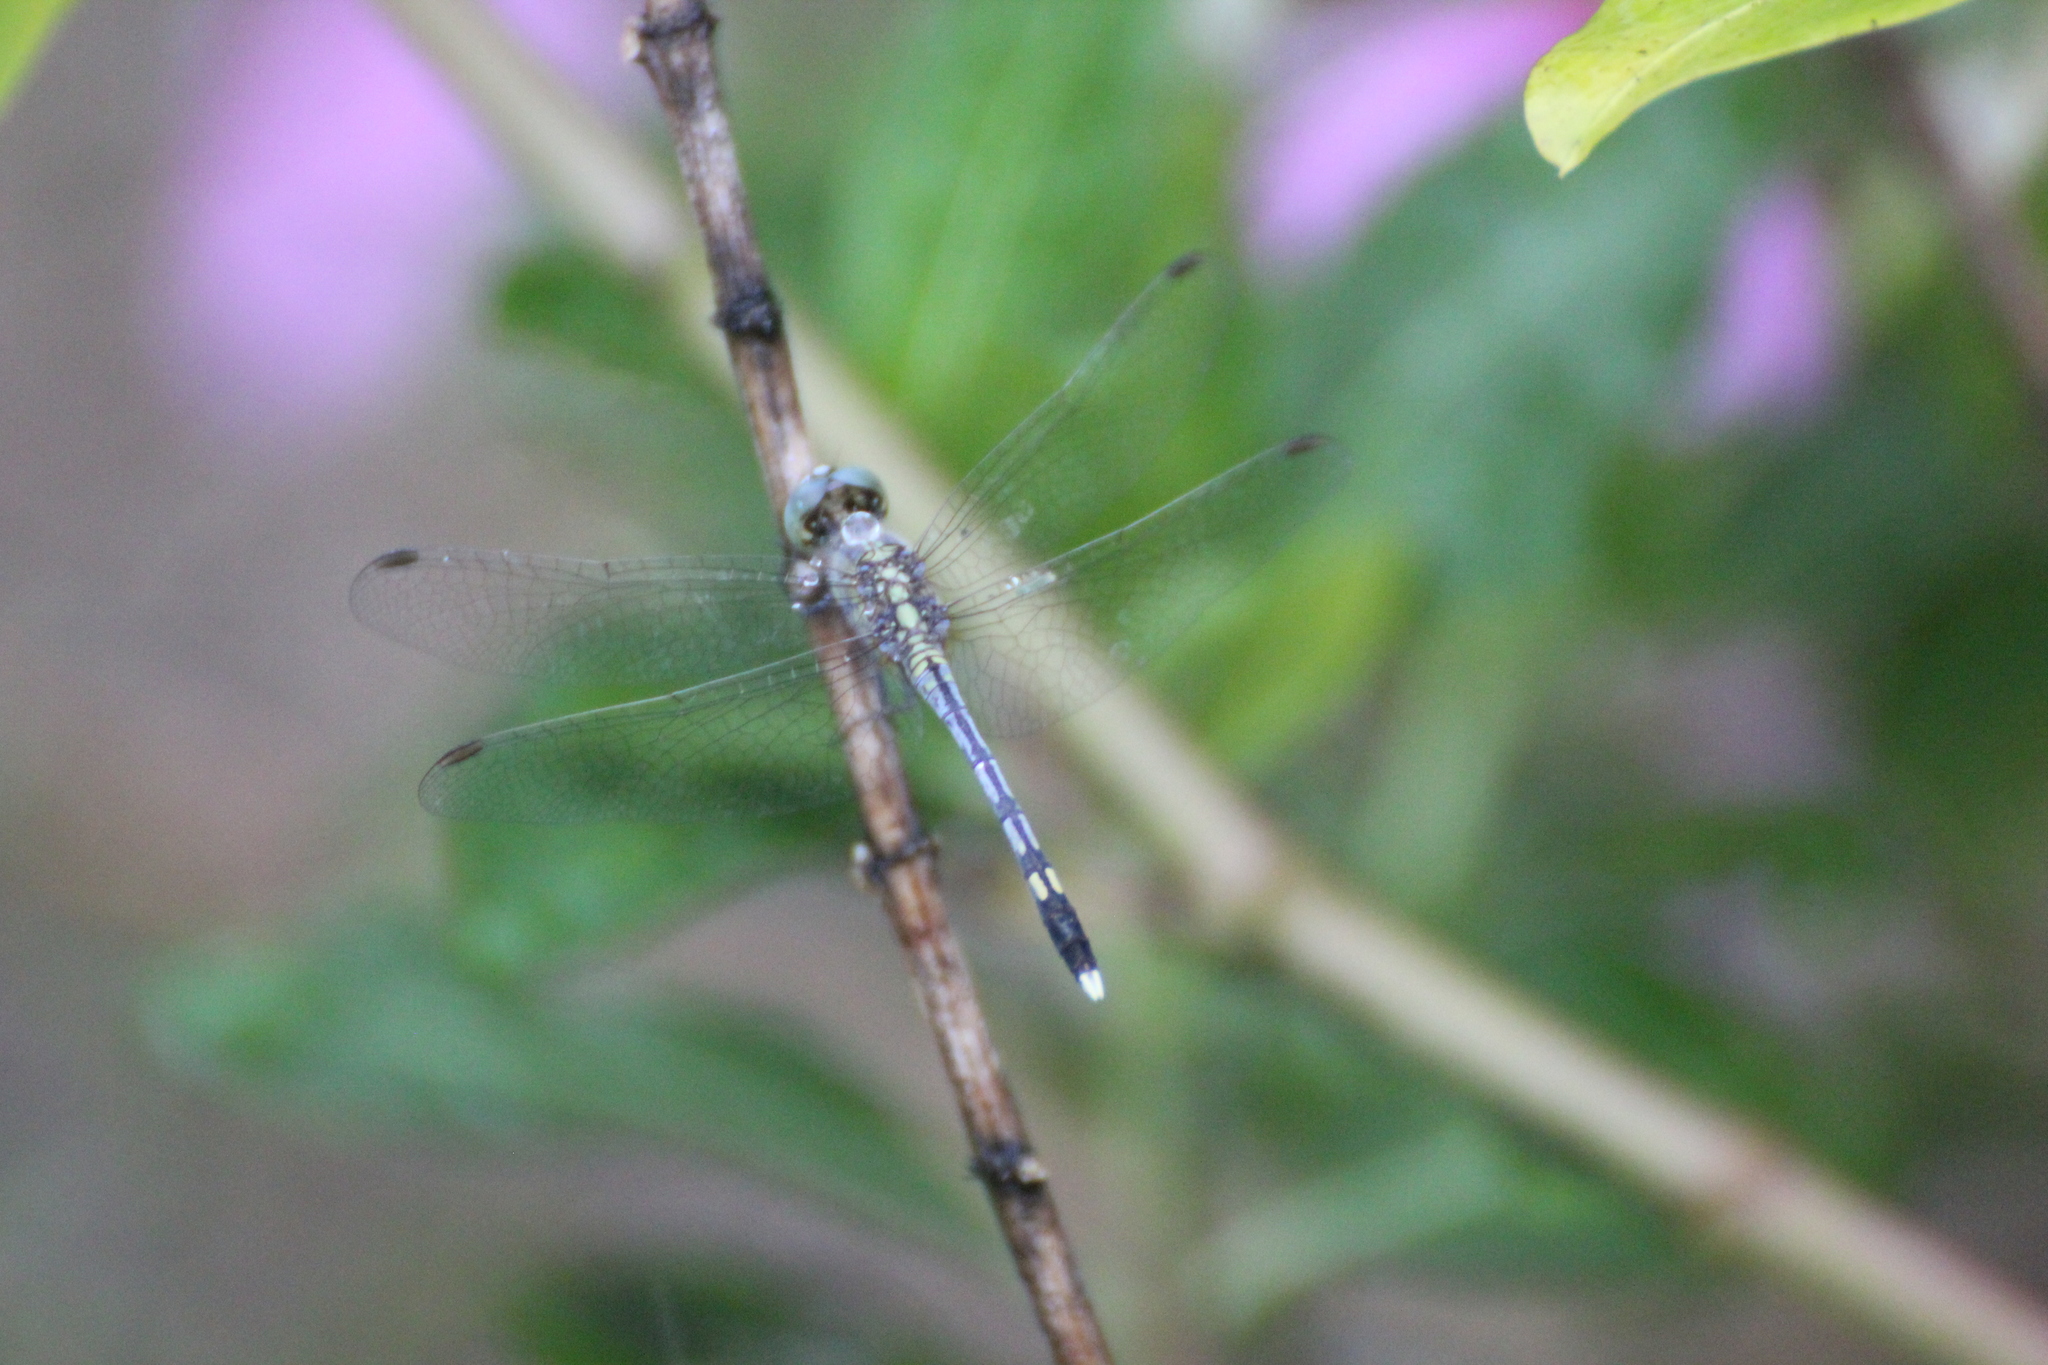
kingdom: Animalia
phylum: Arthropoda
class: Insecta
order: Odonata
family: Libellulidae
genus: Diplacodes
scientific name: Diplacodes trivialis
